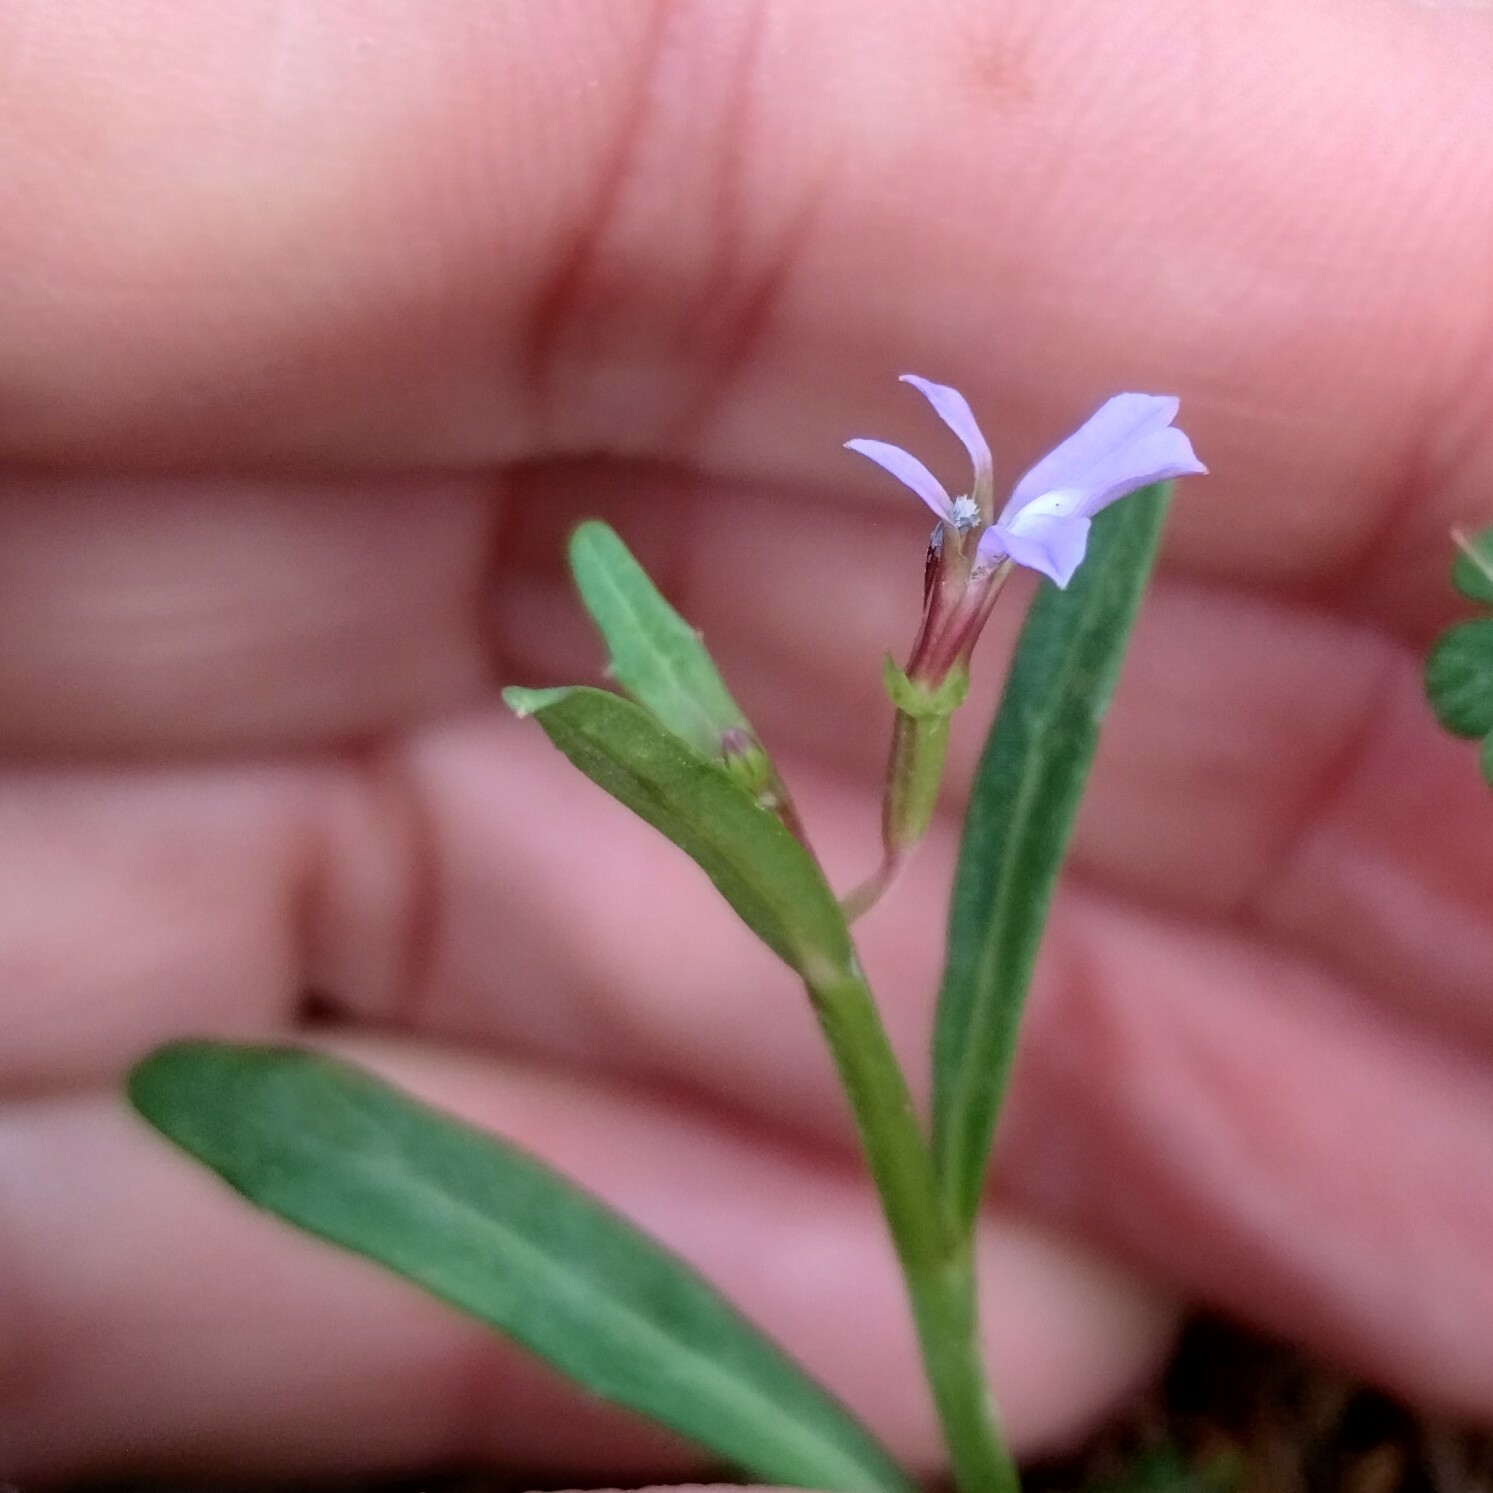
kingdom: Plantae
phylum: Tracheophyta
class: Magnoliopsida
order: Asterales
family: Campanulaceae
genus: Lobelia
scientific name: Lobelia anceps
